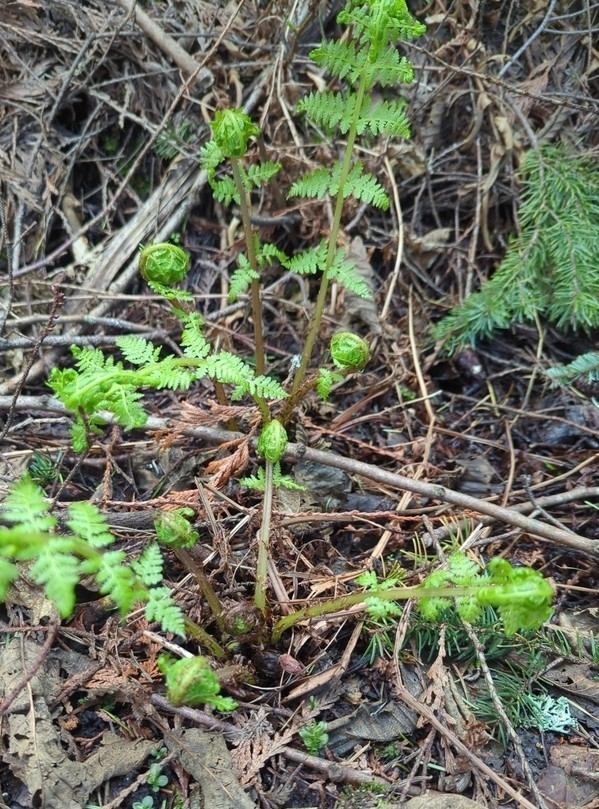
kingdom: Plantae
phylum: Tracheophyta
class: Polypodiopsida
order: Polypodiales
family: Athyriaceae
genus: Athyrium
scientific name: Athyrium filix-femina
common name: Lady fern
